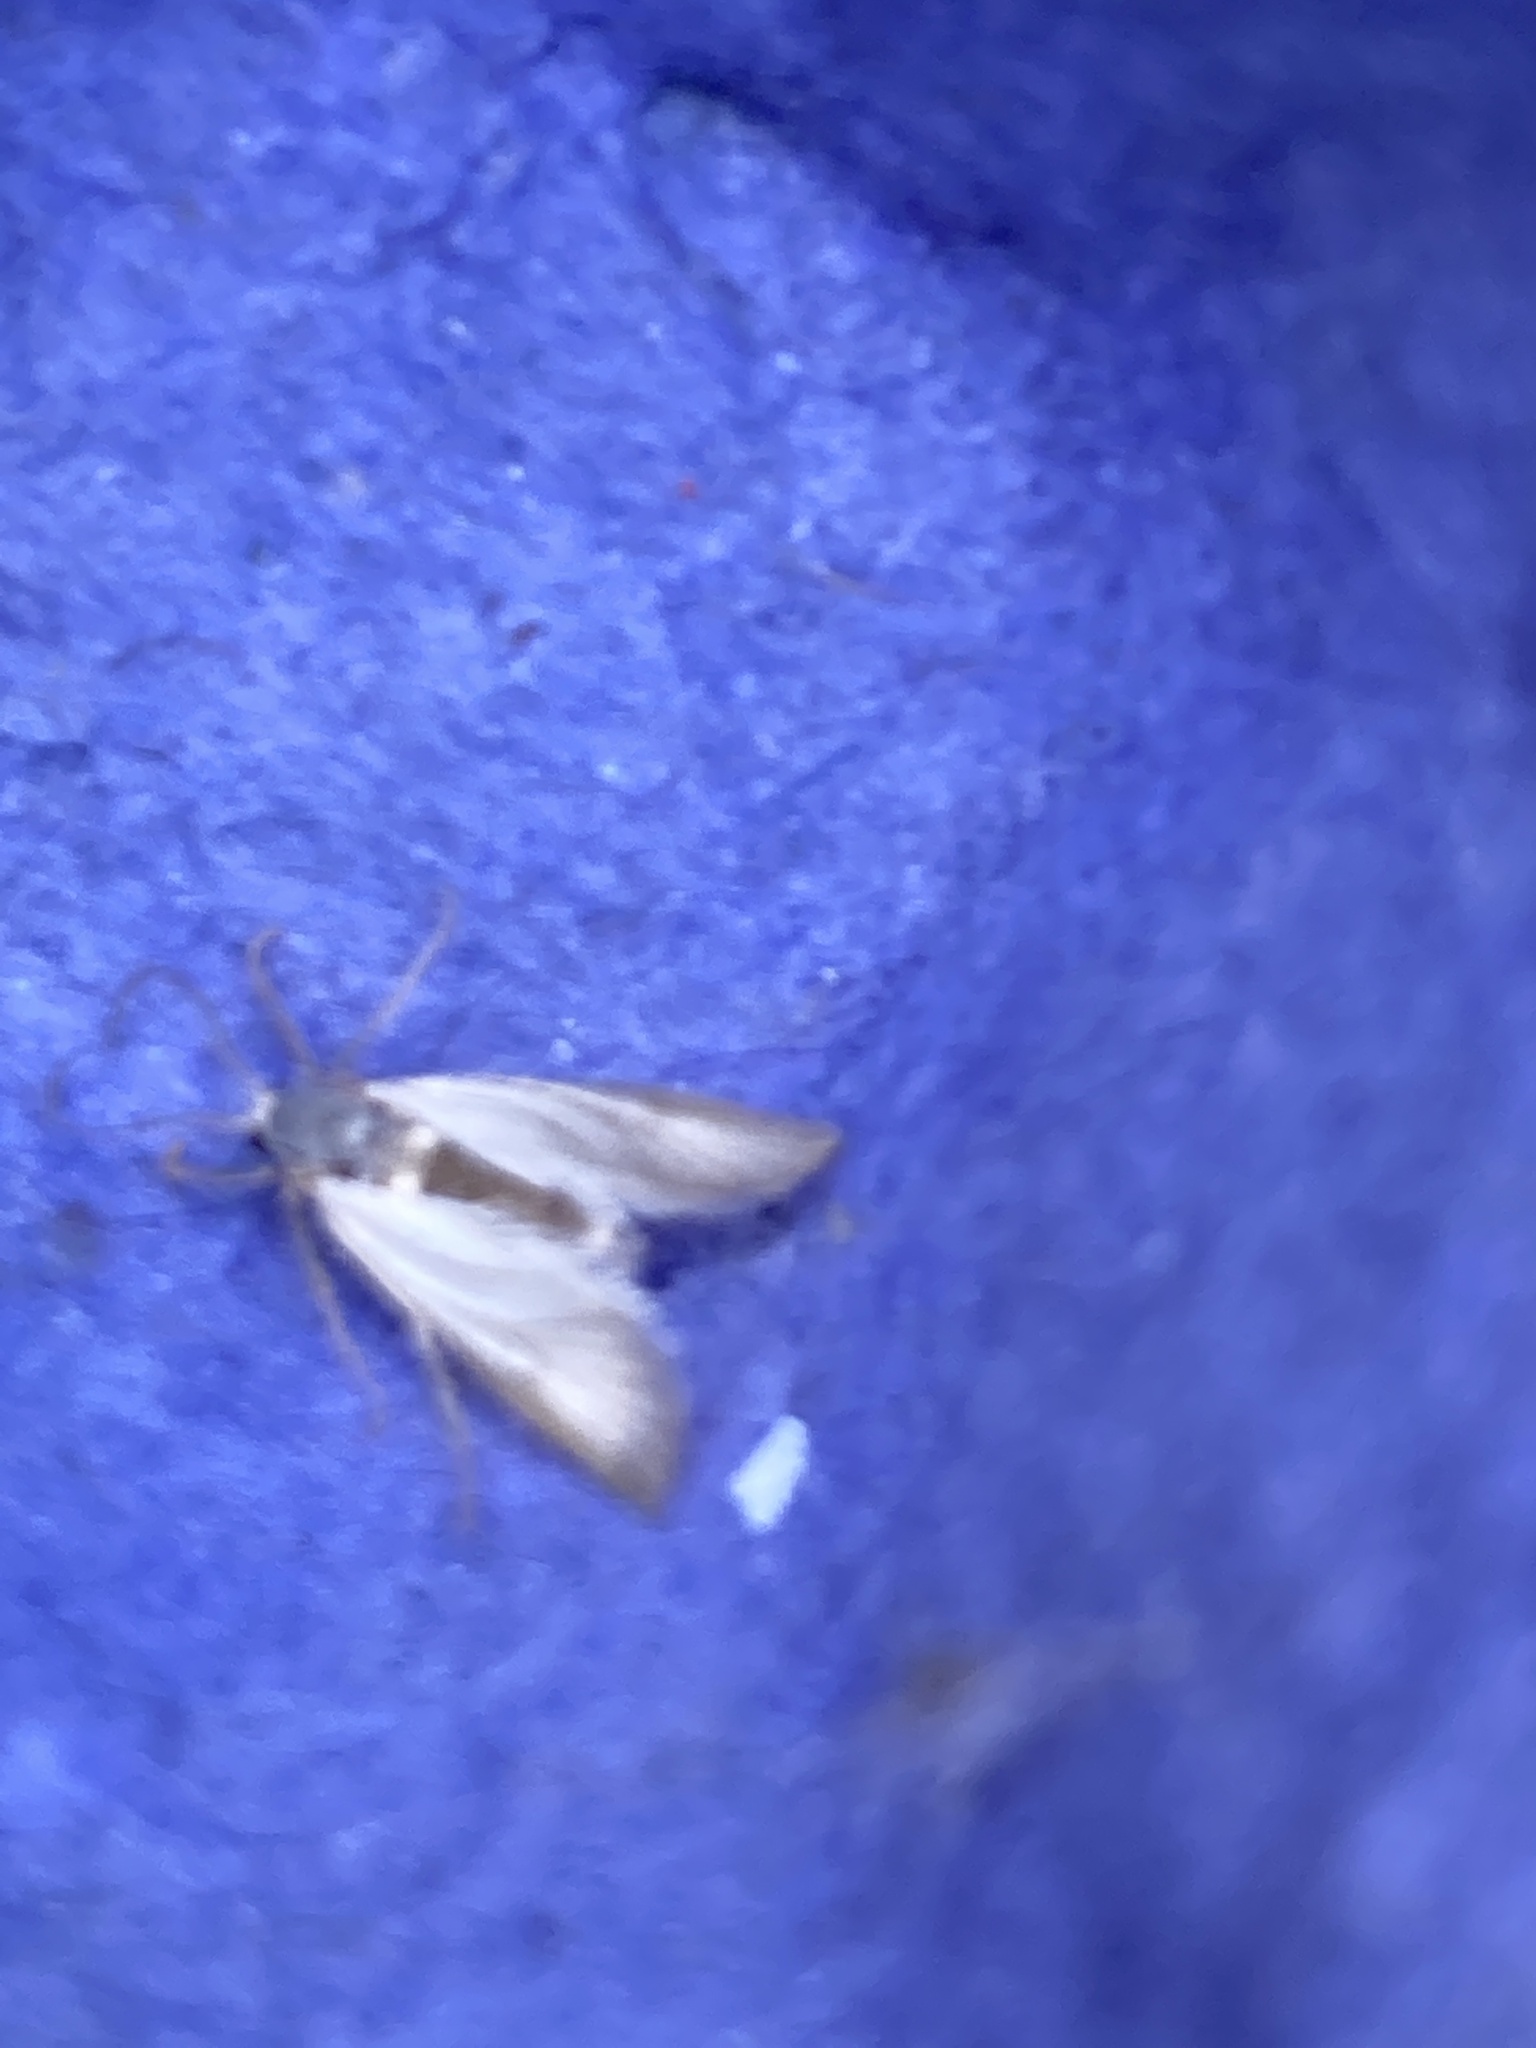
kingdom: Animalia
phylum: Arthropoda
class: Insecta
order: Lepidoptera
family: Crambidae
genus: Acentria
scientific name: Acentria ephemerella
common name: European water moth
